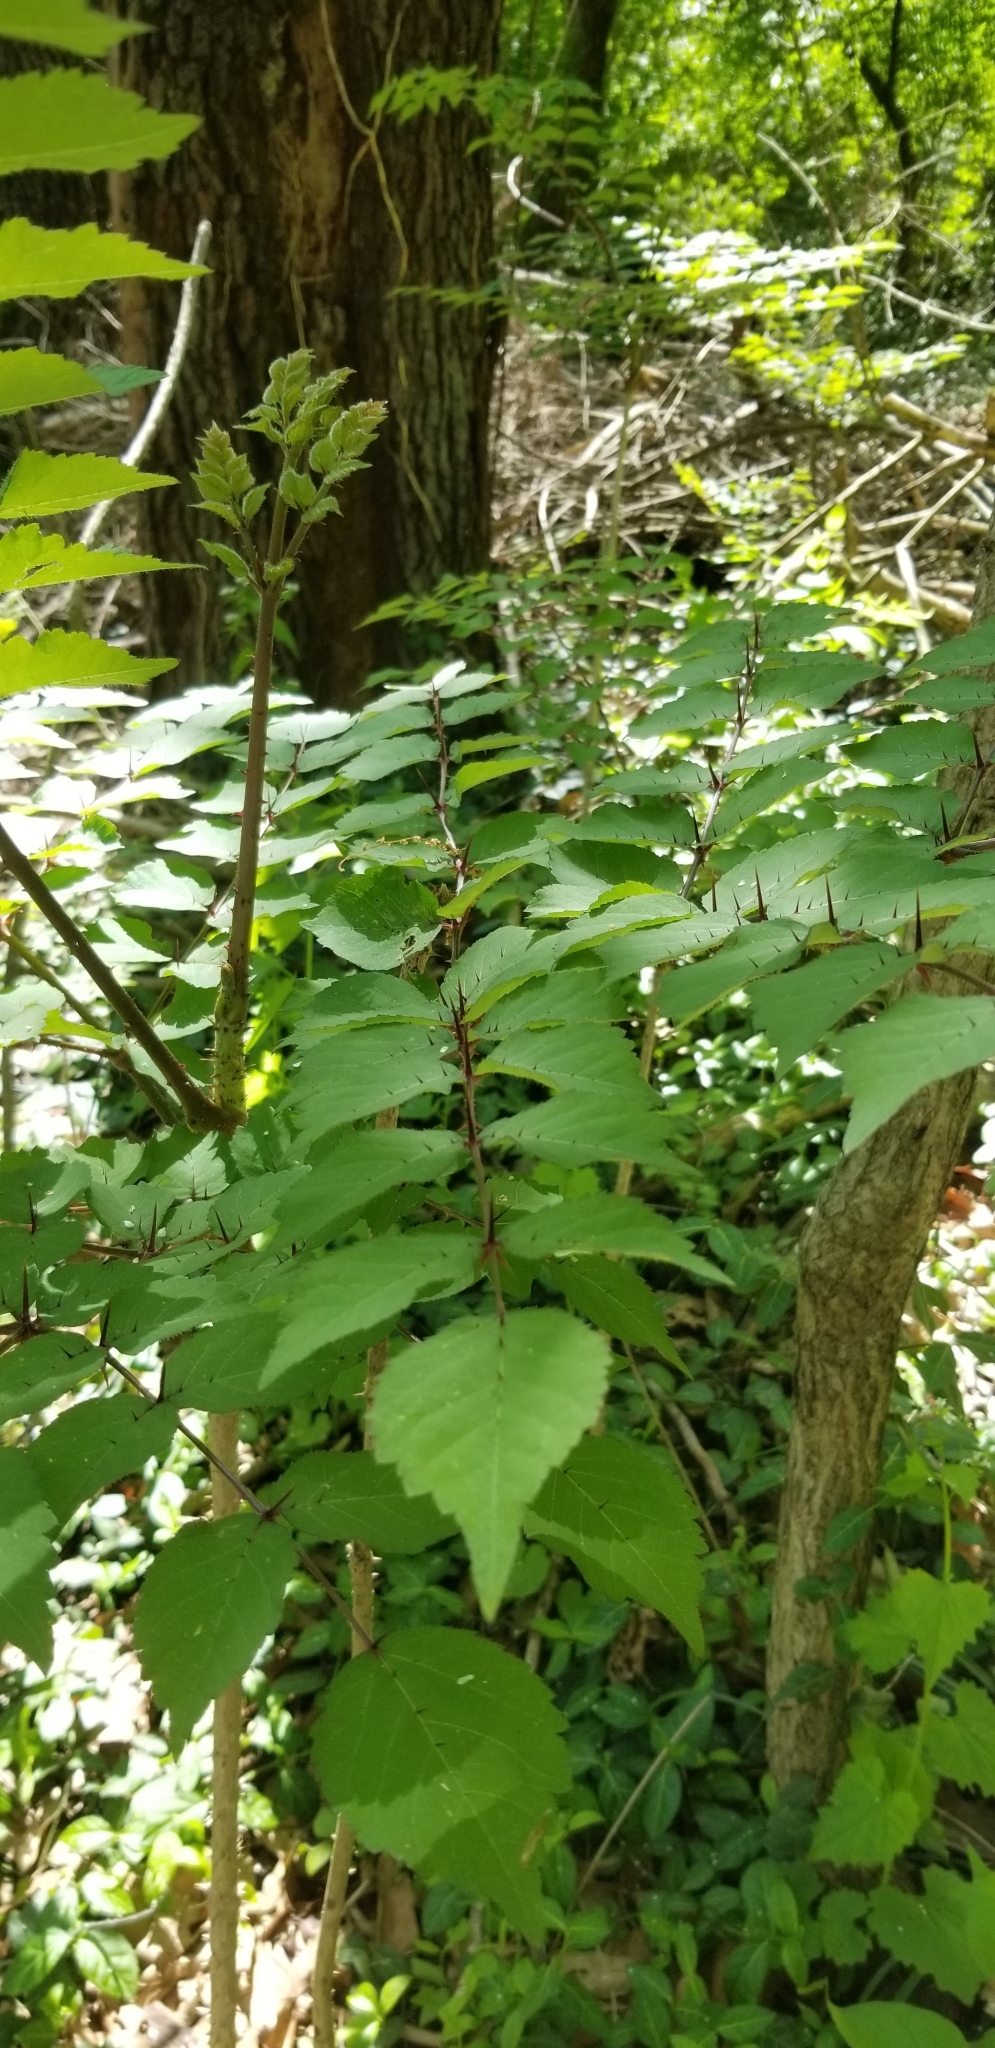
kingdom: Plantae
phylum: Tracheophyta
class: Magnoliopsida
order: Apiales
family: Araliaceae
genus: Aralia
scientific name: Aralia spinosa
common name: Hercules'-club
